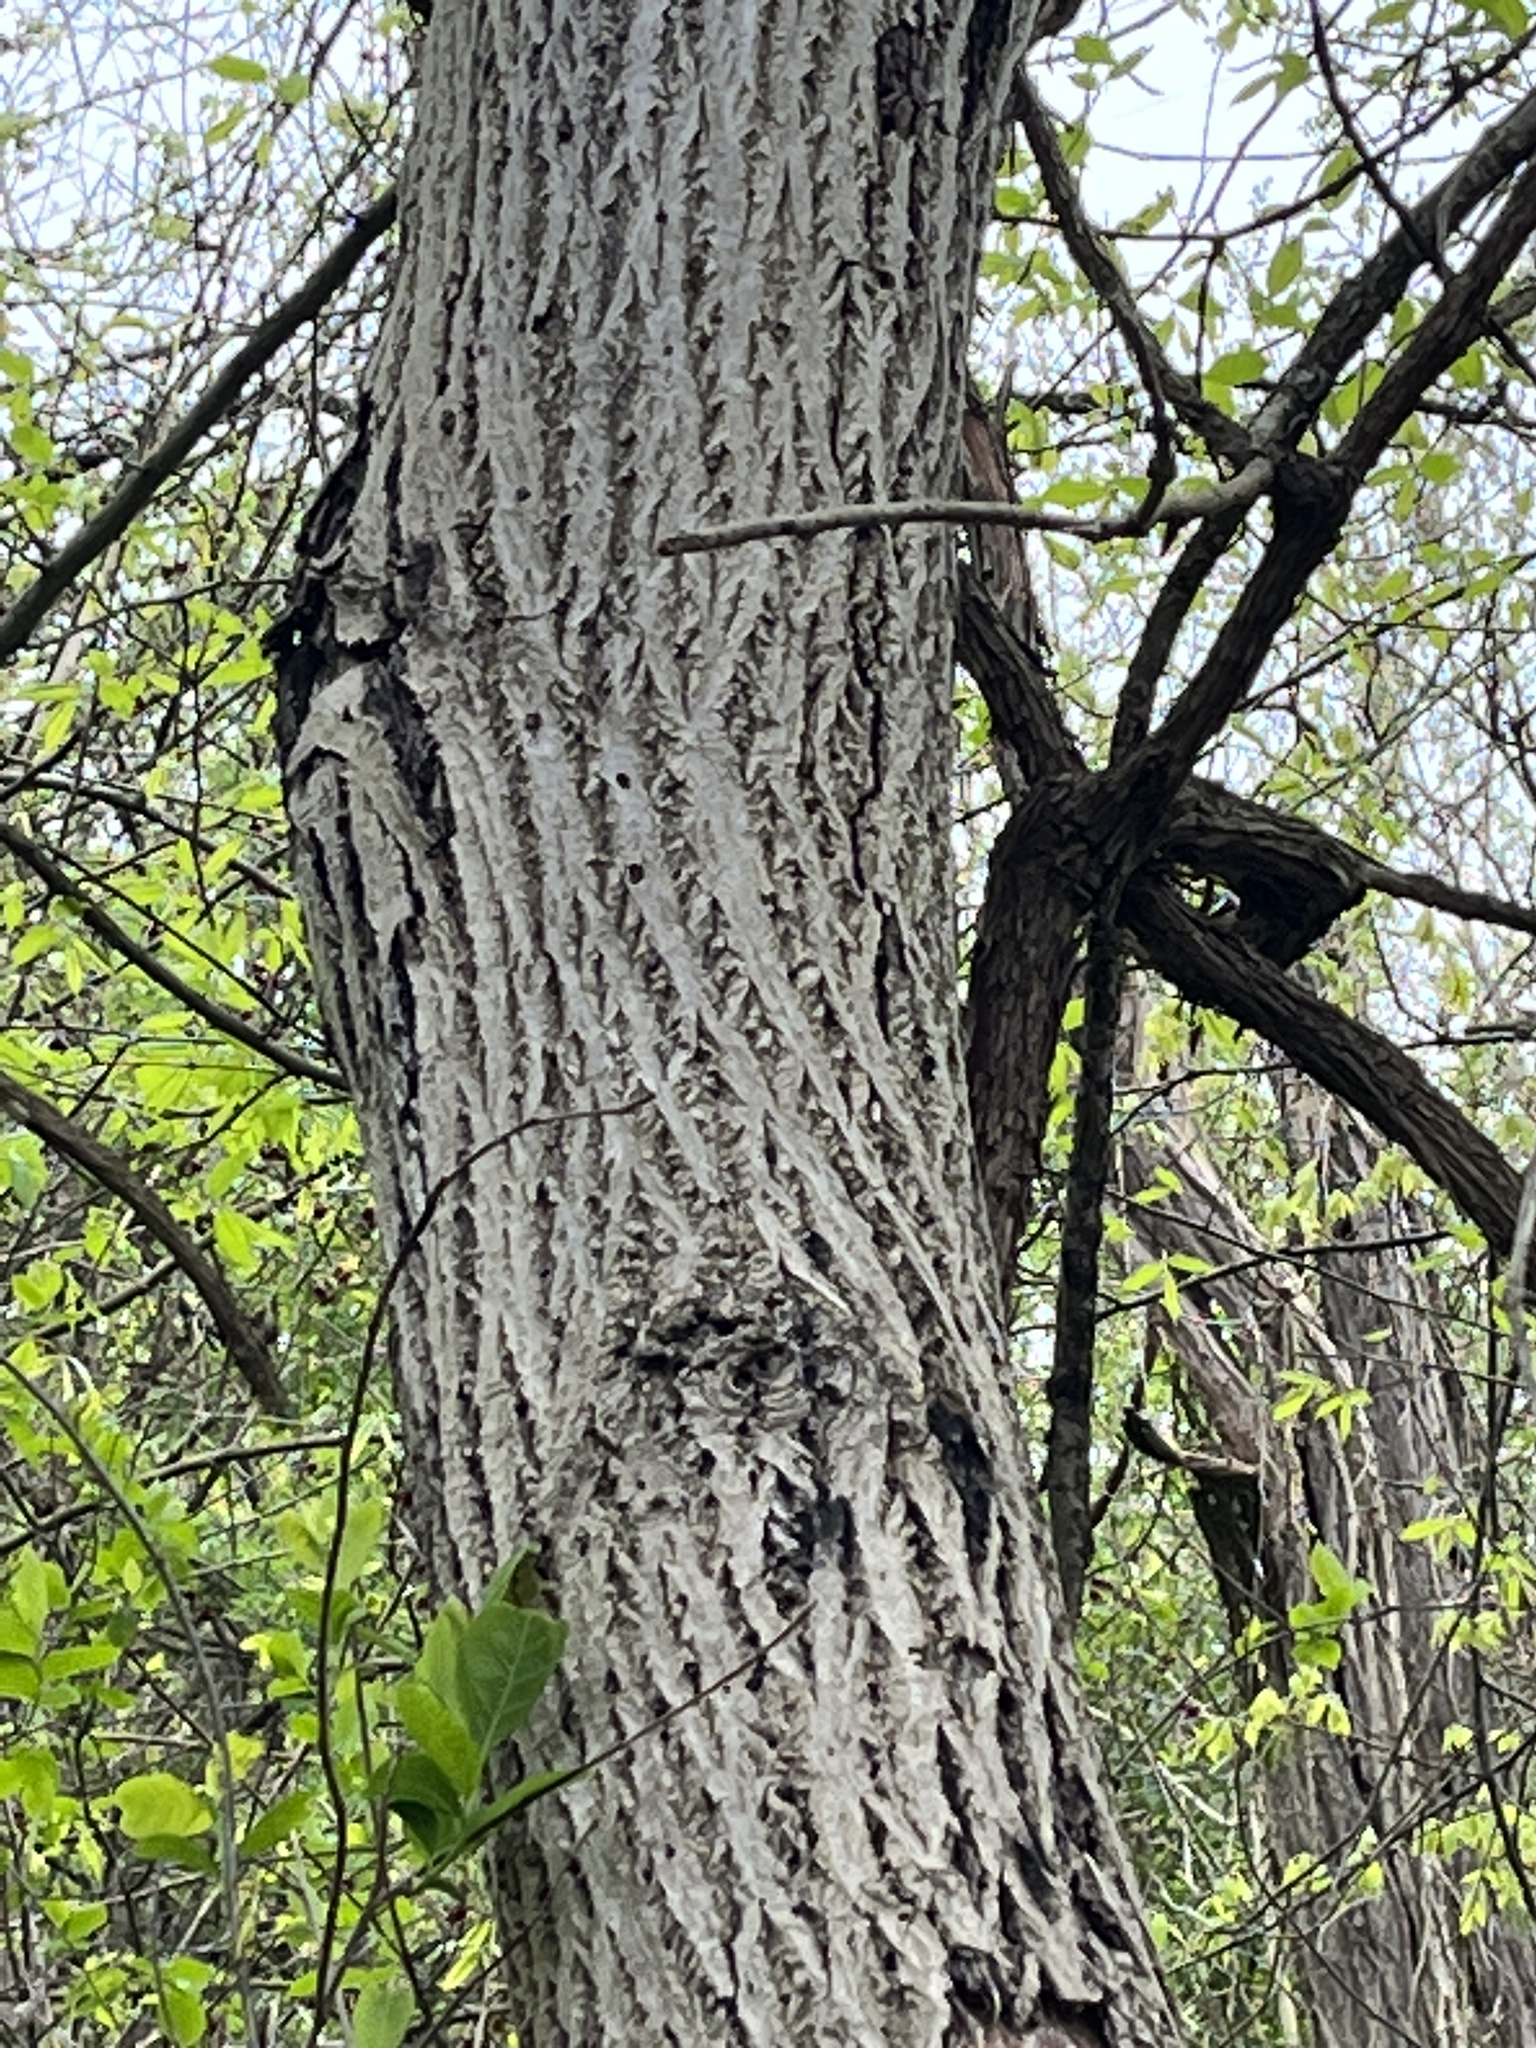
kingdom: Plantae
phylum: Tracheophyta
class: Magnoliopsida
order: Fagales
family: Juglandaceae
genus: Juglans
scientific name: Juglans cinerea
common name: Butternut
